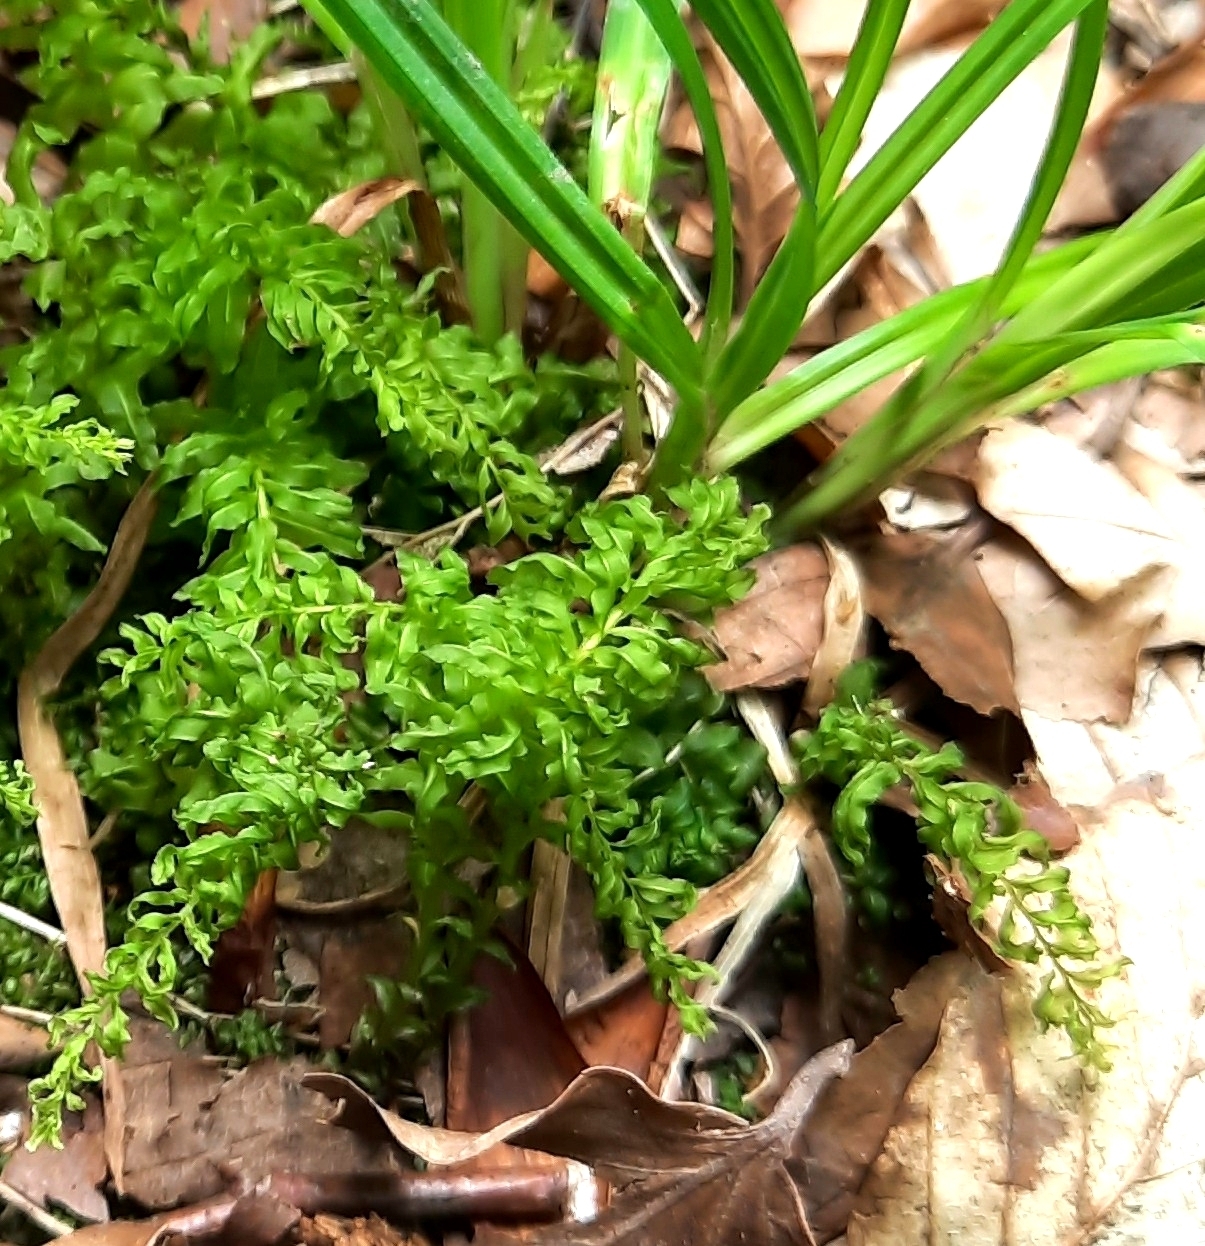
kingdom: Plantae
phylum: Bryophyta
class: Bryopsida
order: Bryales
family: Mniaceae
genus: Plagiomnium
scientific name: Plagiomnium undulatum
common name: Hart's-tongue thyme-moss
